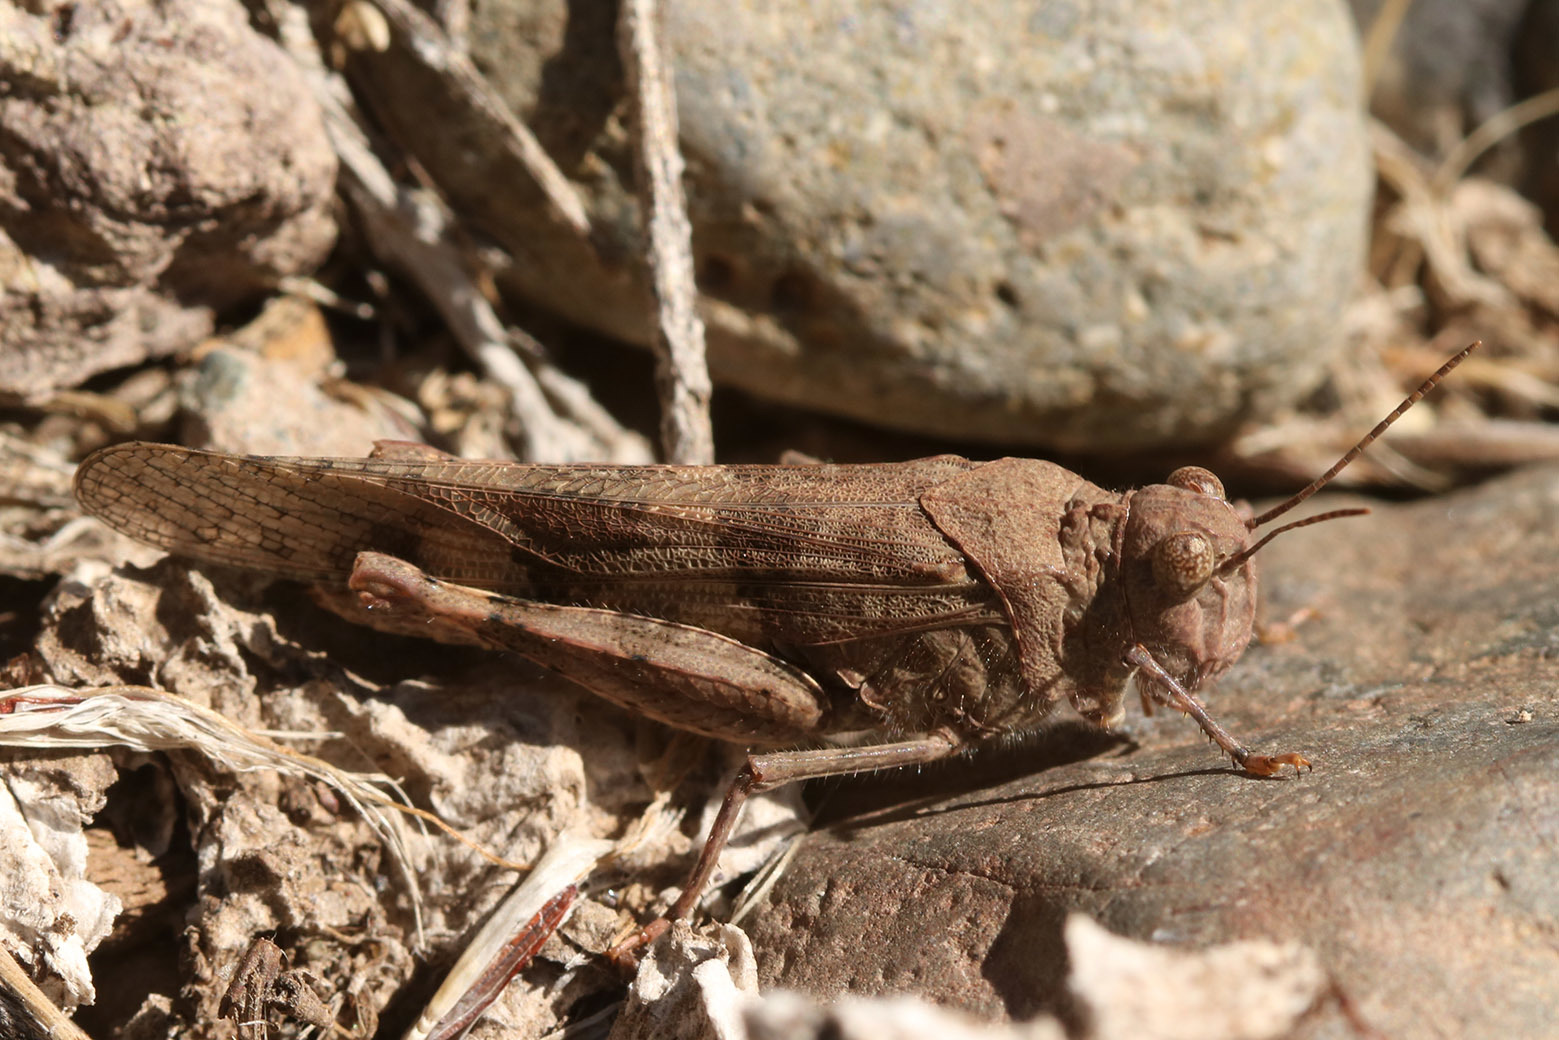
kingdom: Animalia
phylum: Arthropoda
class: Insecta
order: Orthoptera
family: Acrididae
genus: Trimerotropis
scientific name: Trimerotropis pallidipennis
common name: Pallid-winged grasshopper
